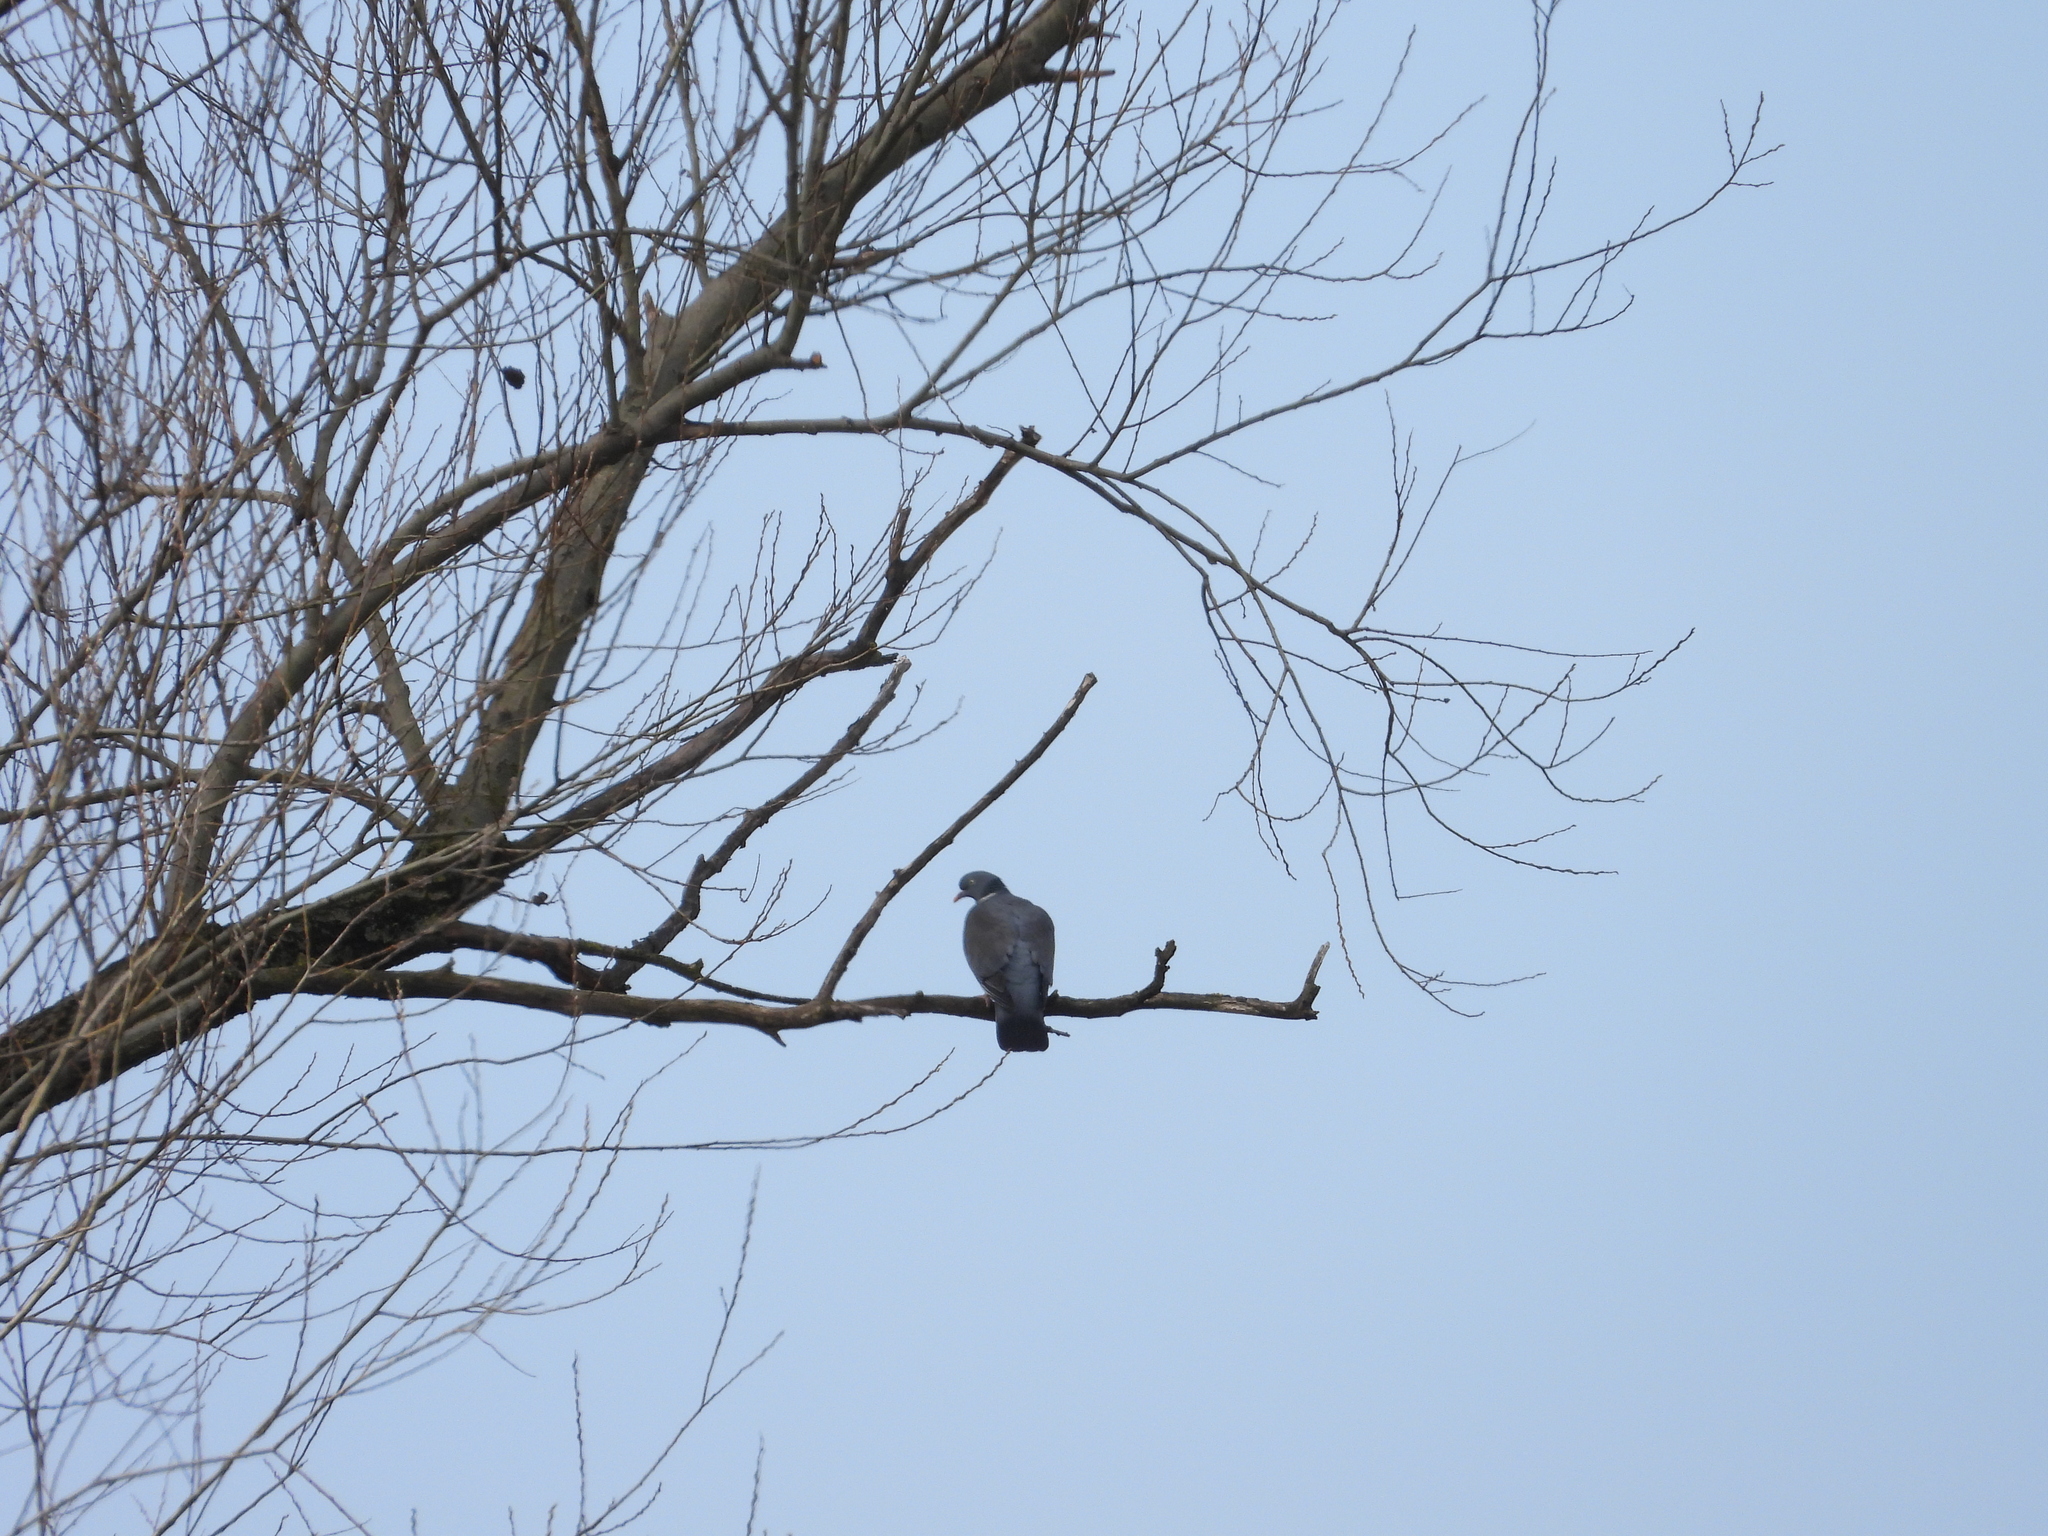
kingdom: Animalia
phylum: Chordata
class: Aves
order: Columbiformes
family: Columbidae
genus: Columba
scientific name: Columba palumbus
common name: Common wood pigeon
